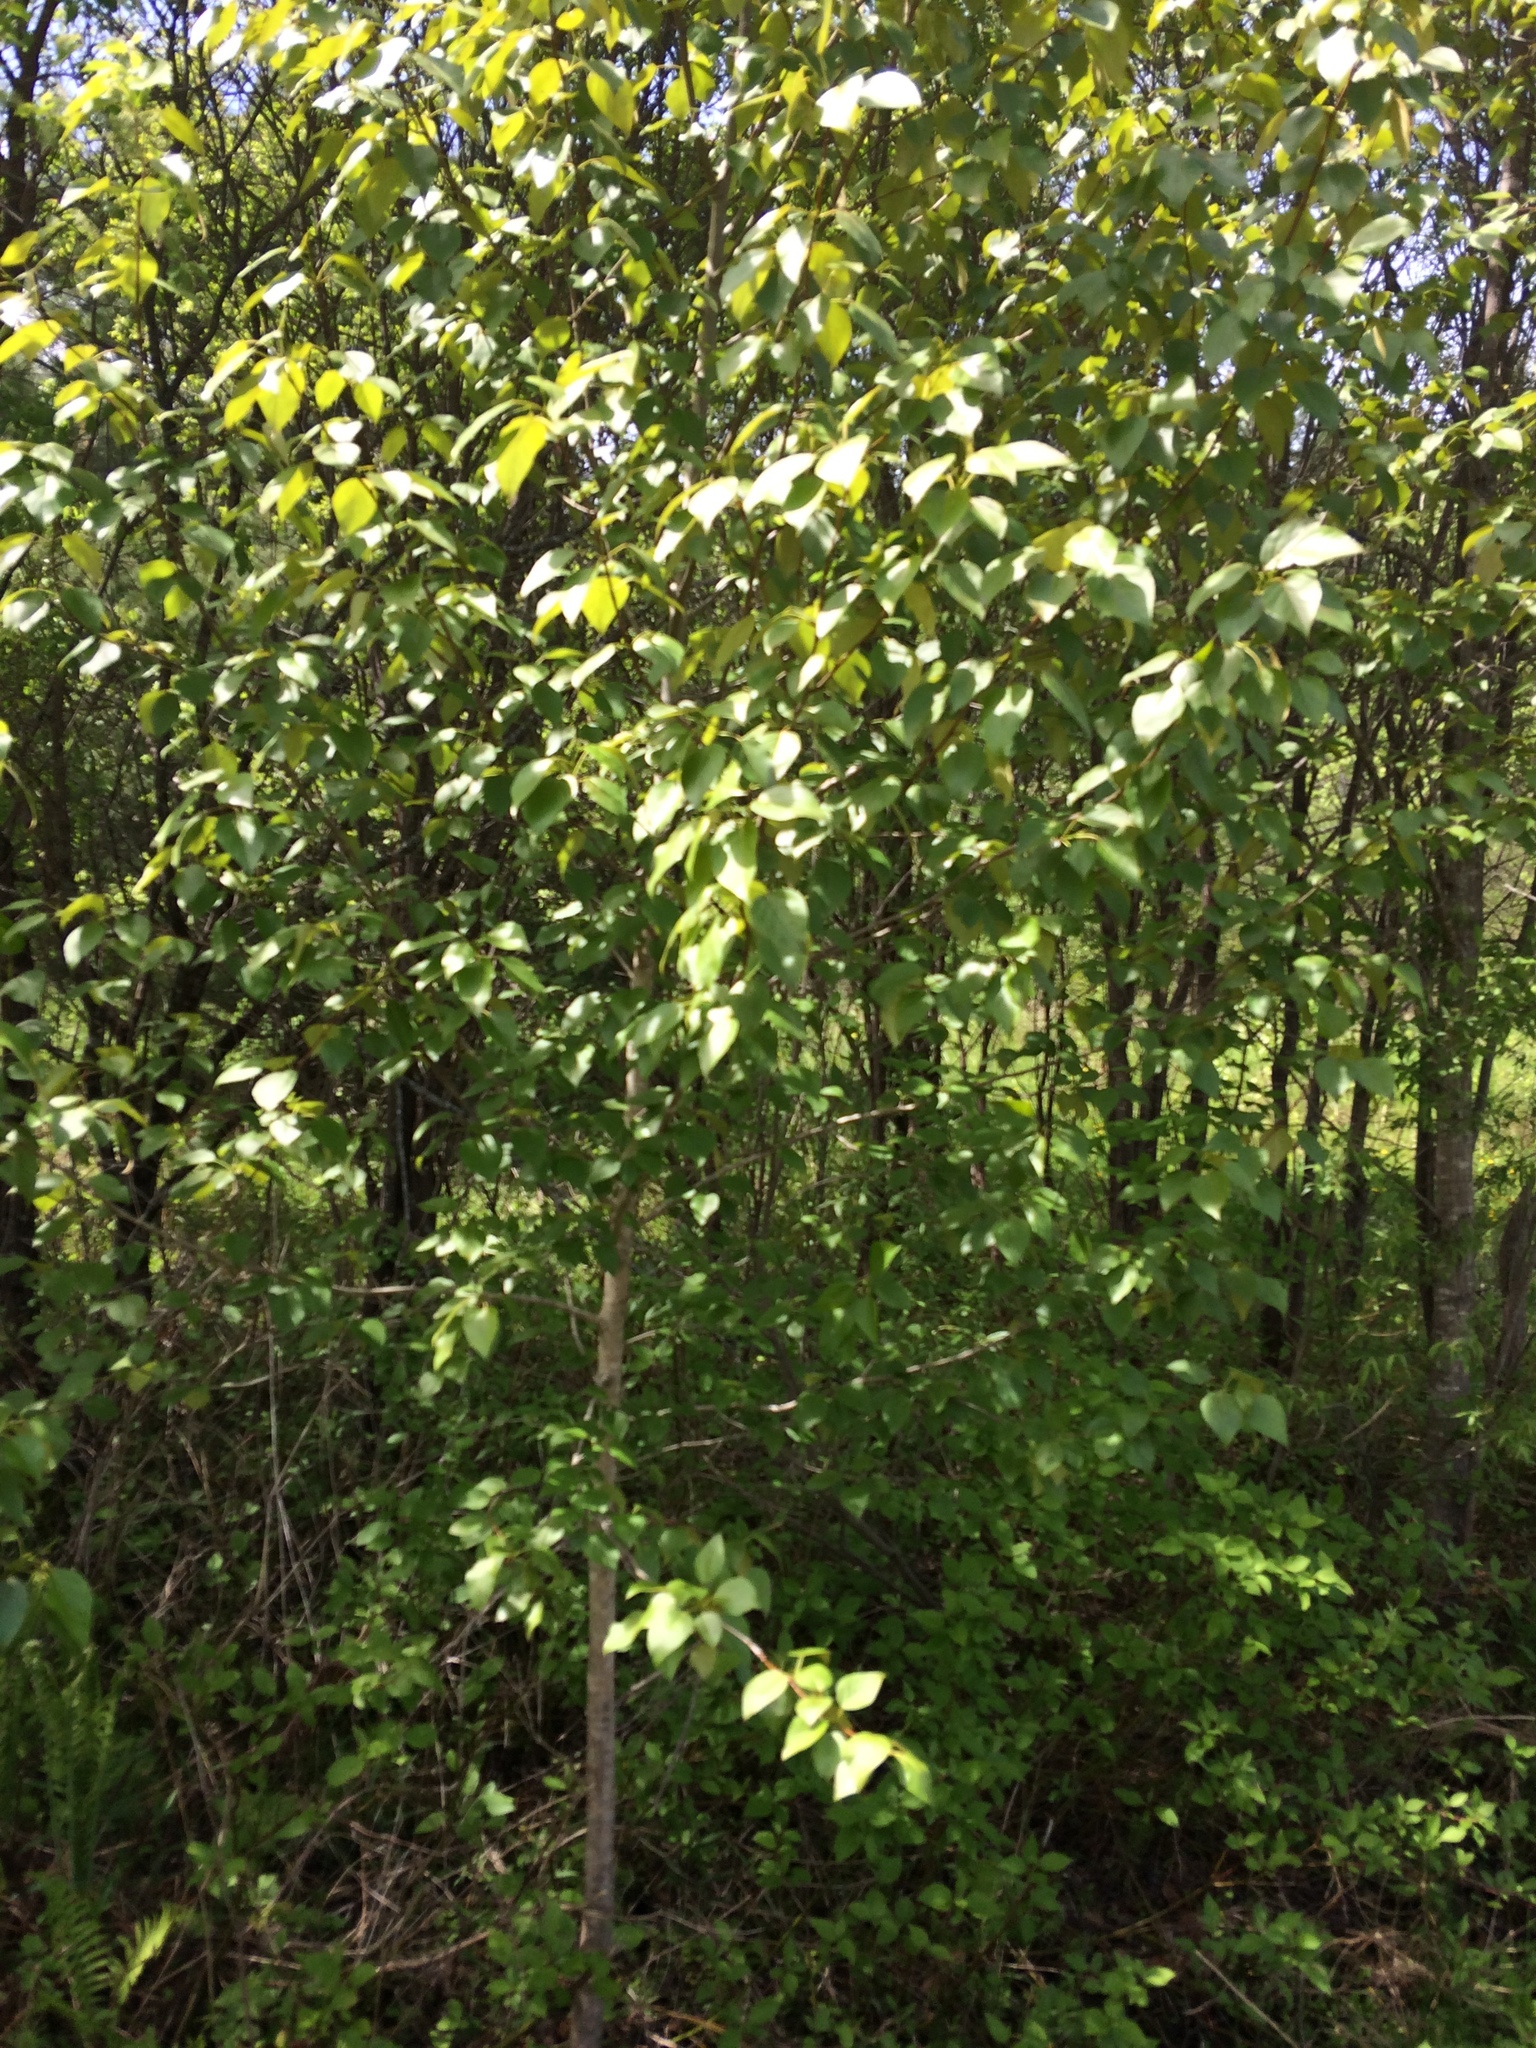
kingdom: Plantae
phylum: Tracheophyta
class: Magnoliopsida
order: Malpighiales
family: Salicaceae
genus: Populus
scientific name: Populus balsamifera
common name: Balsam poplar
